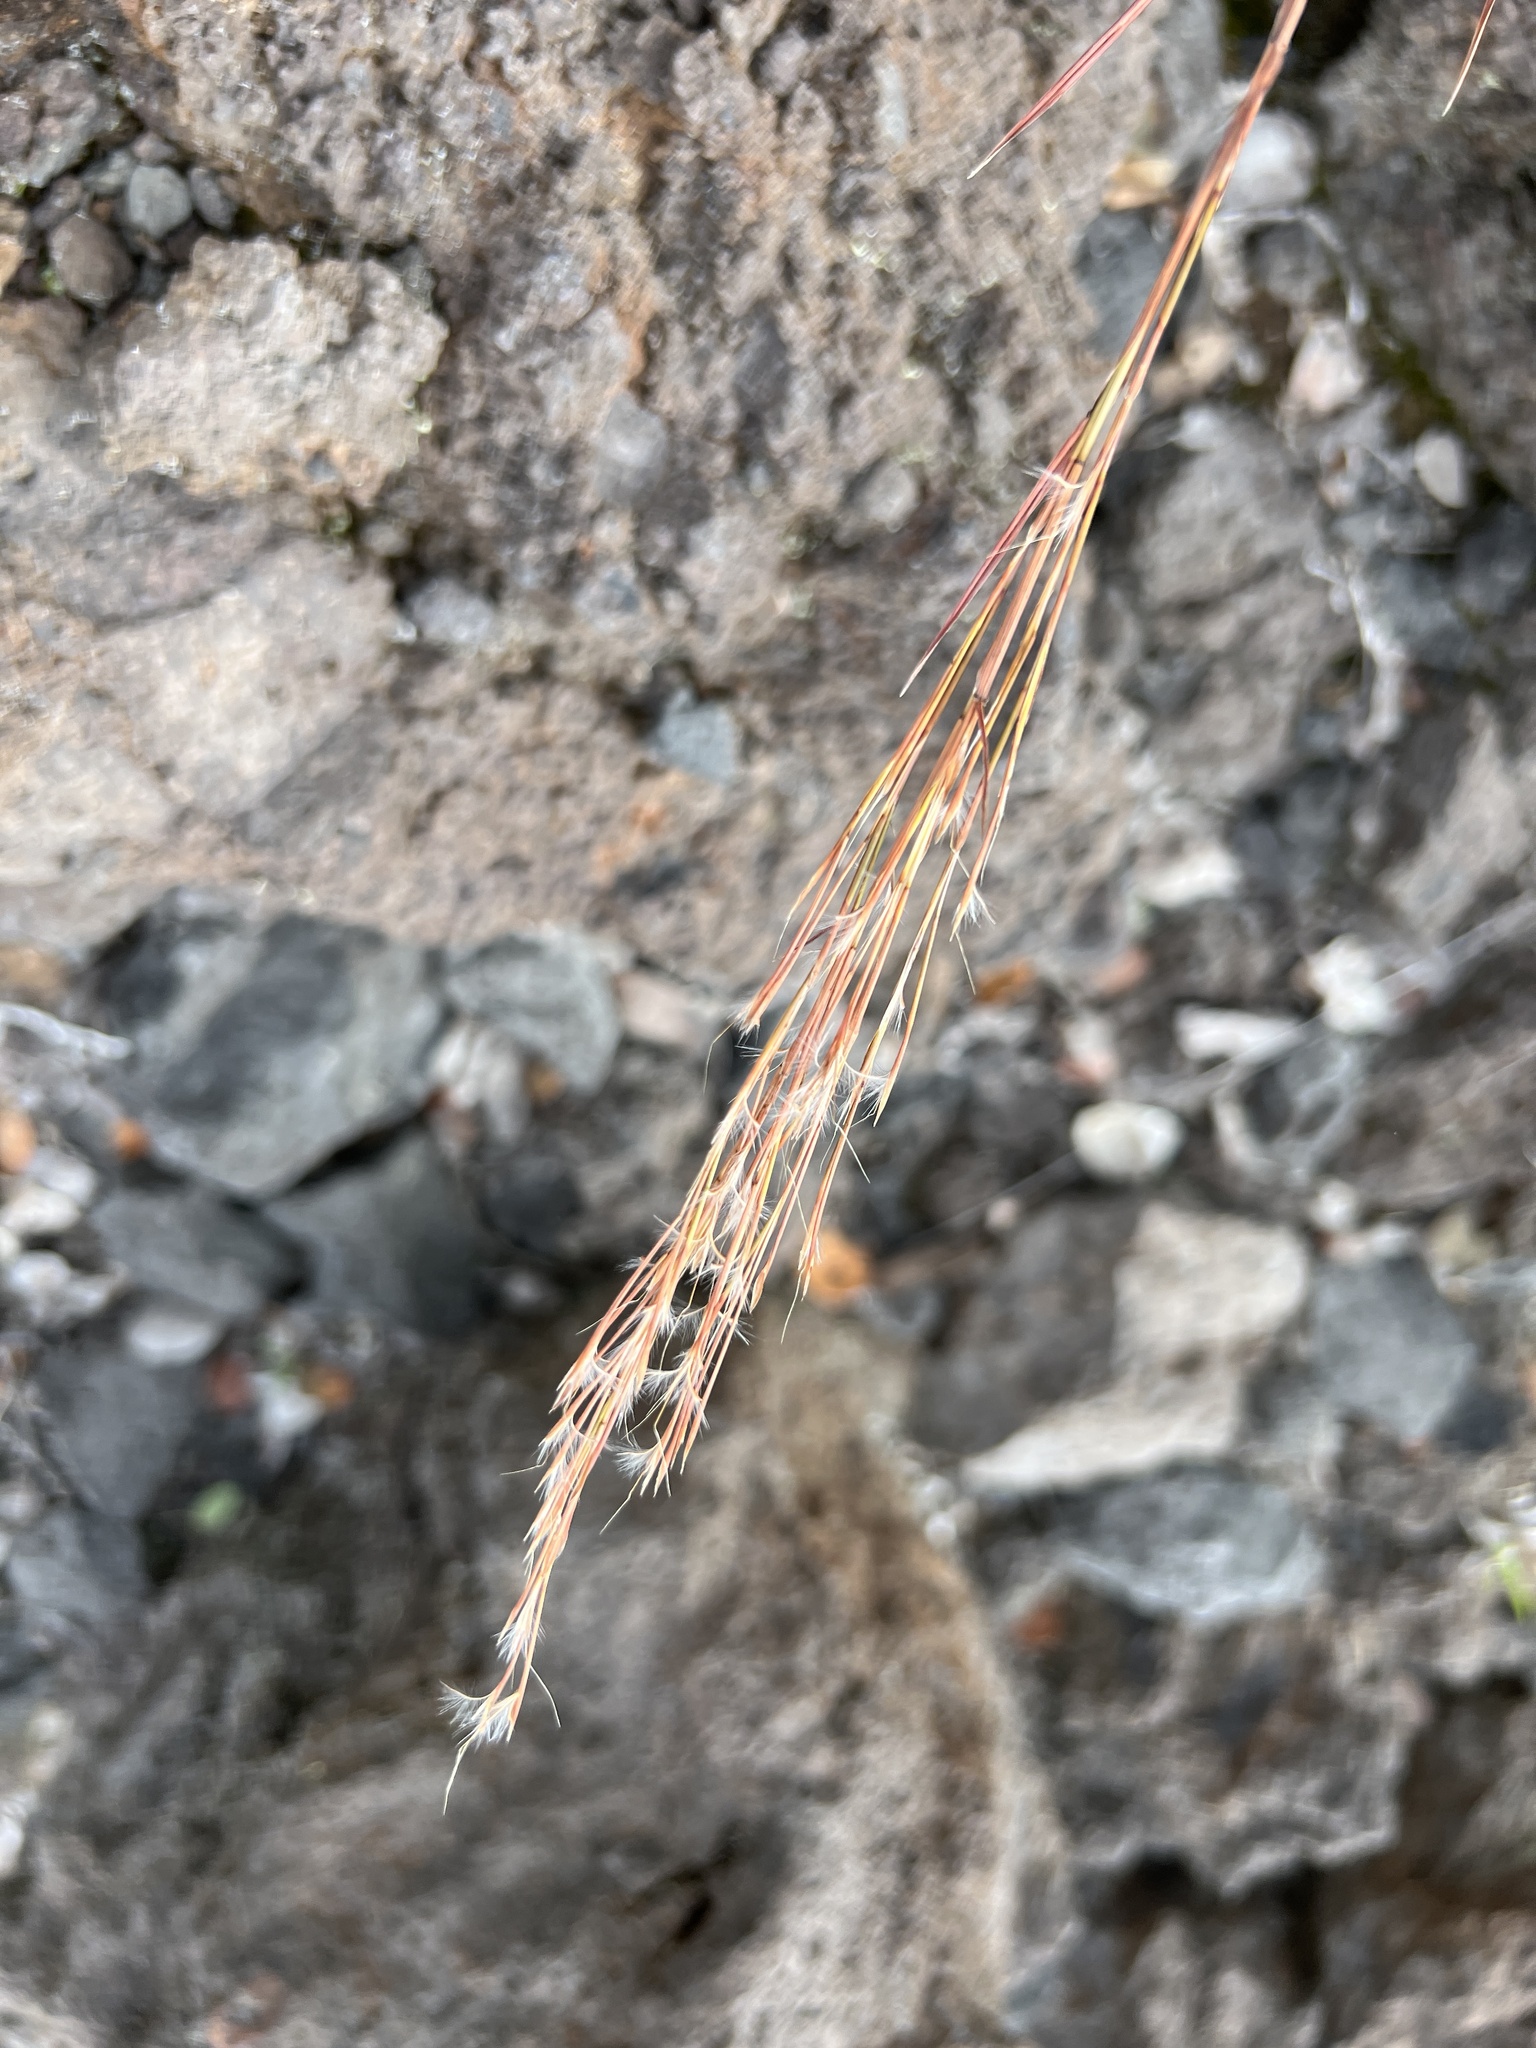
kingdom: Plantae
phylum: Tracheophyta
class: Liliopsida
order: Poales
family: Poaceae
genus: Andropogon
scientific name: Andropogon virginicus
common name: Broomsedge bluestem
